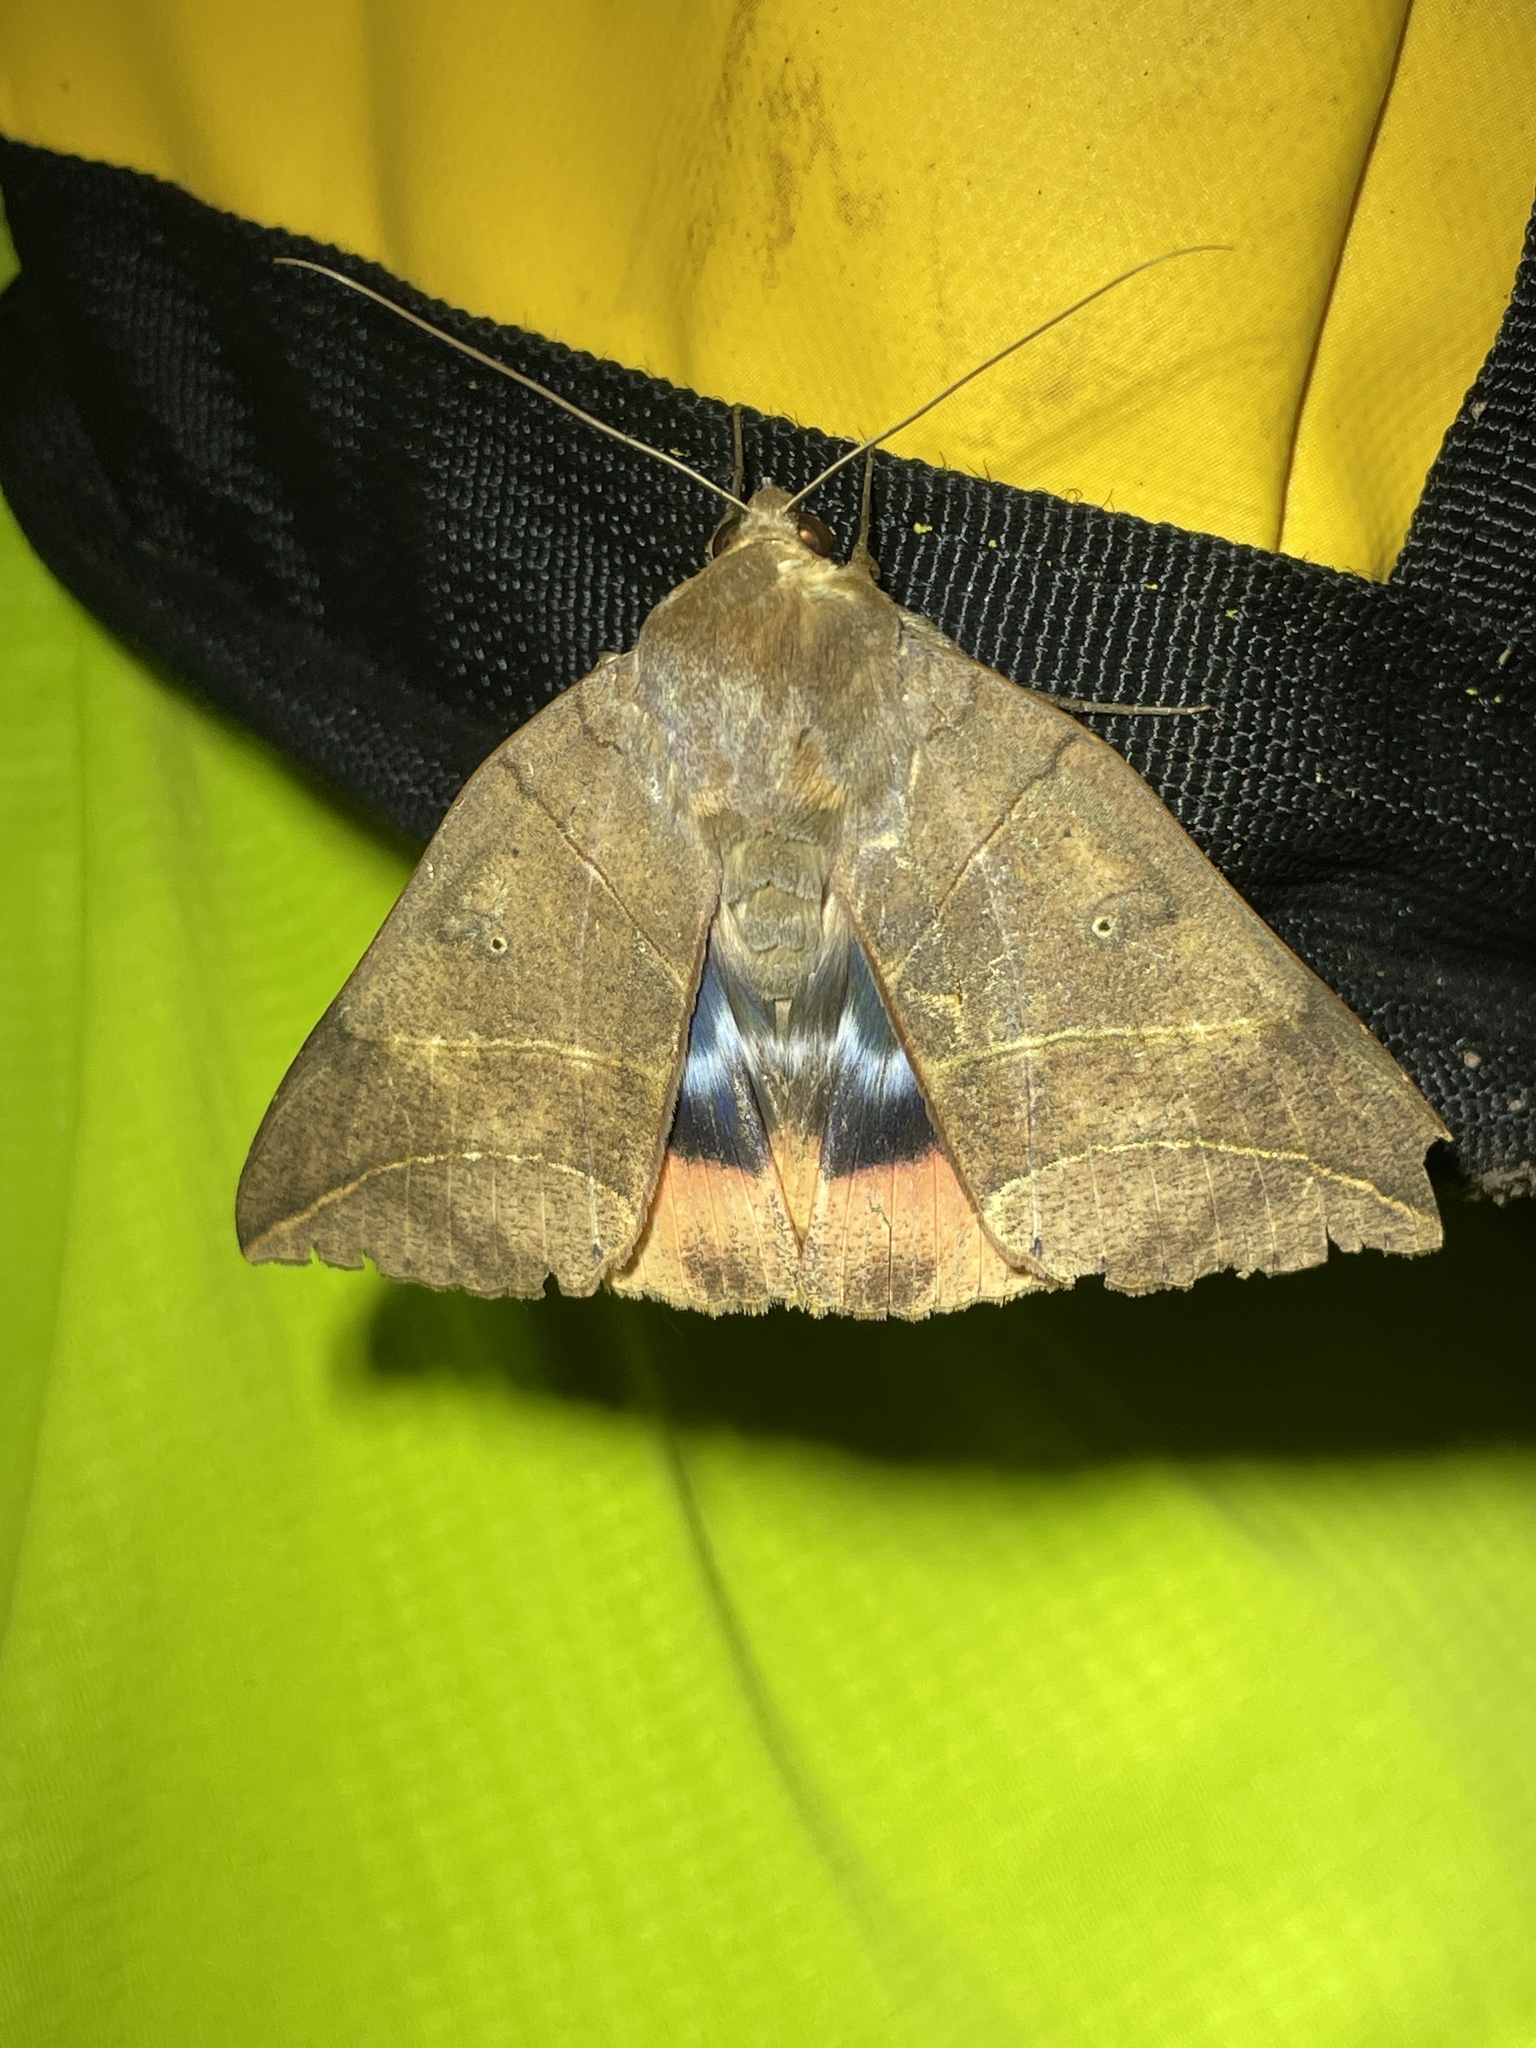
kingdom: Animalia
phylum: Arthropoda
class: Insecta
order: Lepidoptera
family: Erebidae
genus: Thyas
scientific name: Thyas juno
